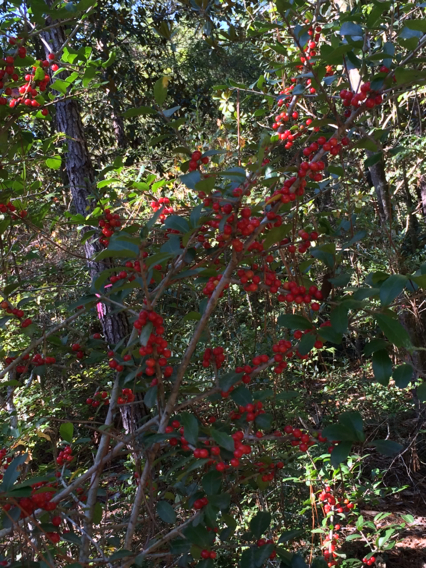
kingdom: Plantae
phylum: Tracheophyta
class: Magnoliopsida
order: Aquifoliales
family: Aquifoliaceae
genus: Ilex
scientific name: Ilex vomitoria
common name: Yaupon holly
